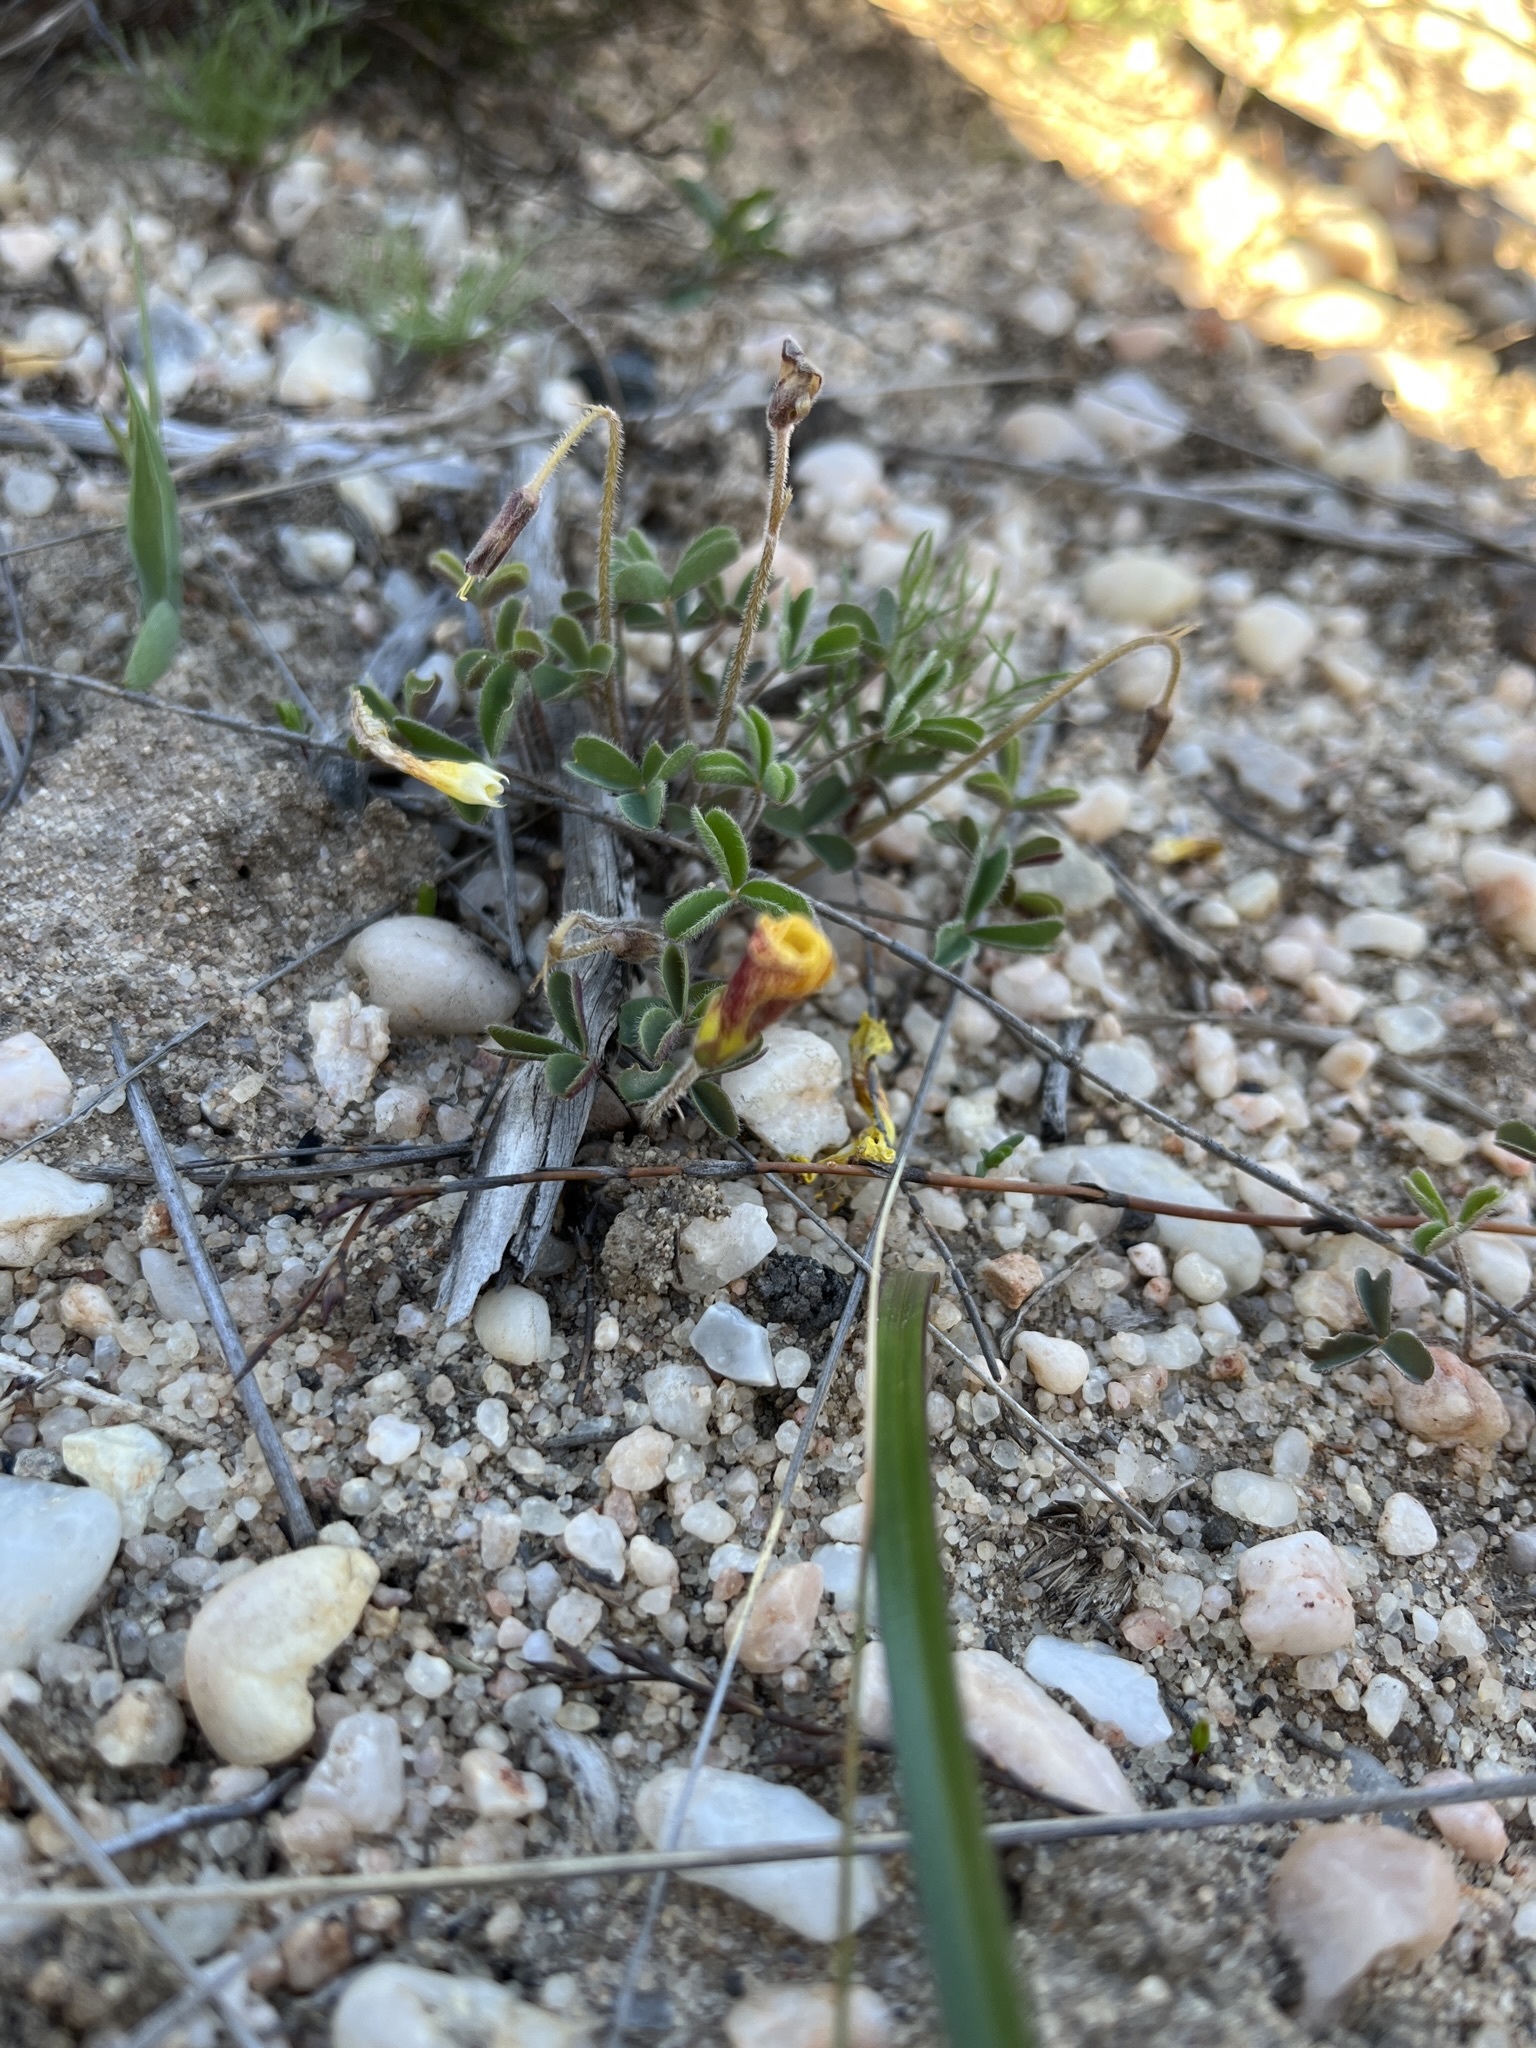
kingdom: Plantae
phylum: Tracheophyta
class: Magnoliopsida
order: Oxalidales
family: Oxalidaceae
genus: Oxalis
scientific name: Oxalis obtusa
